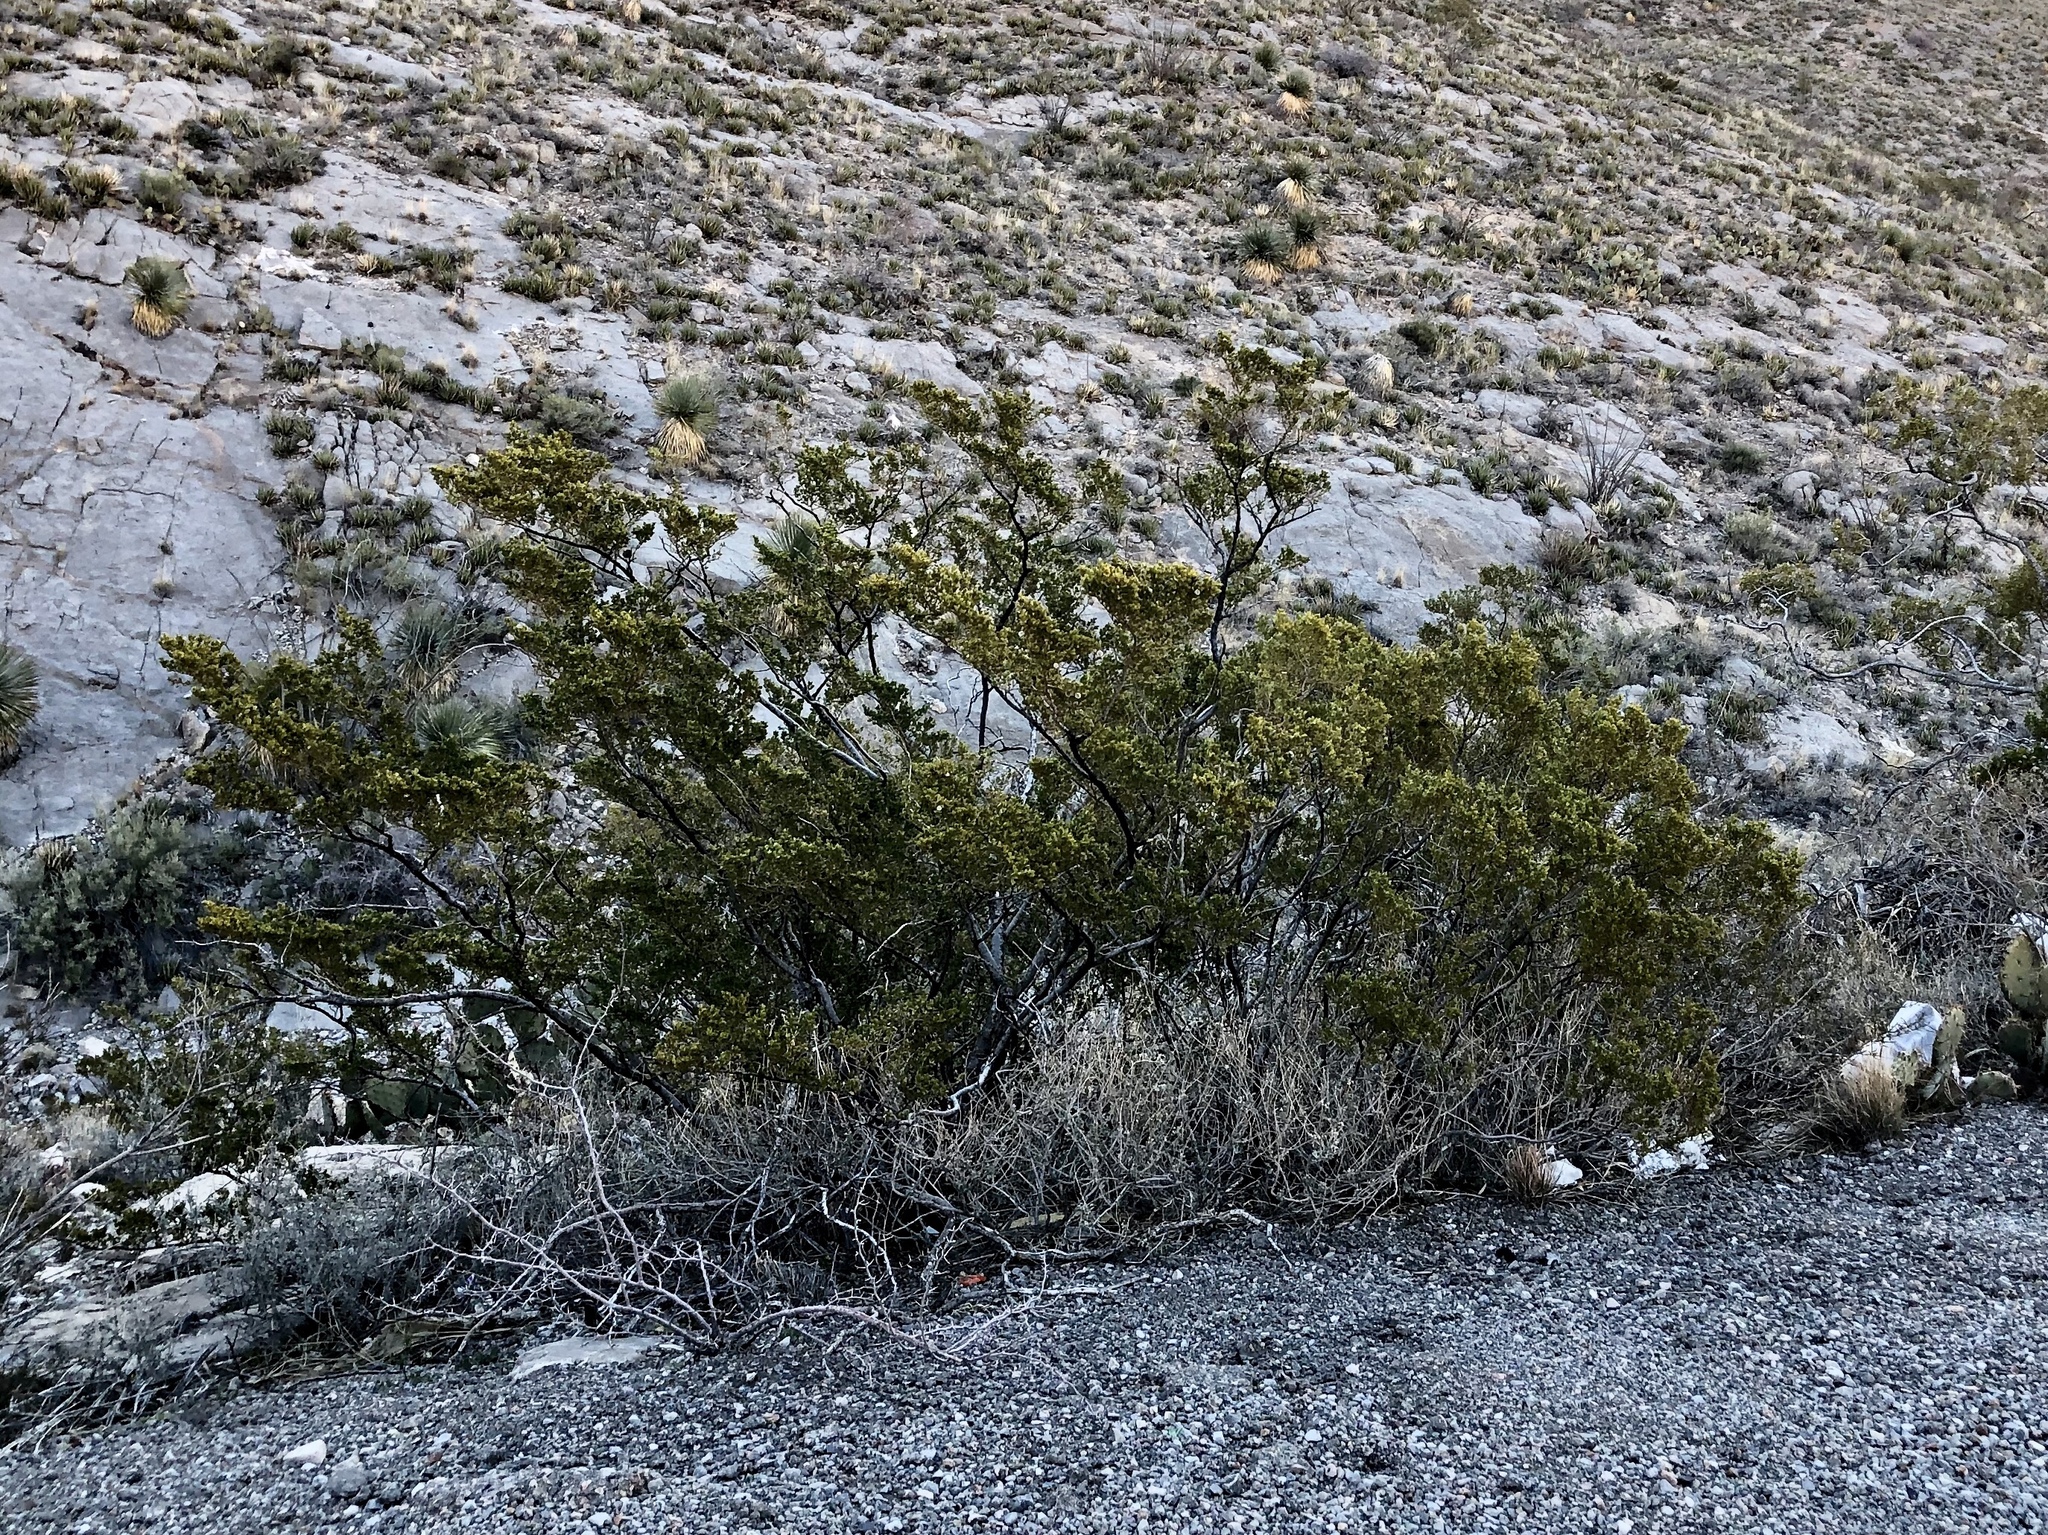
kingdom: Plantae
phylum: Tracheophyta
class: Magnoliopsida
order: Zygophyllales
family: Zygophyllaceae
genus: Larrea
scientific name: Larrea tridentata
